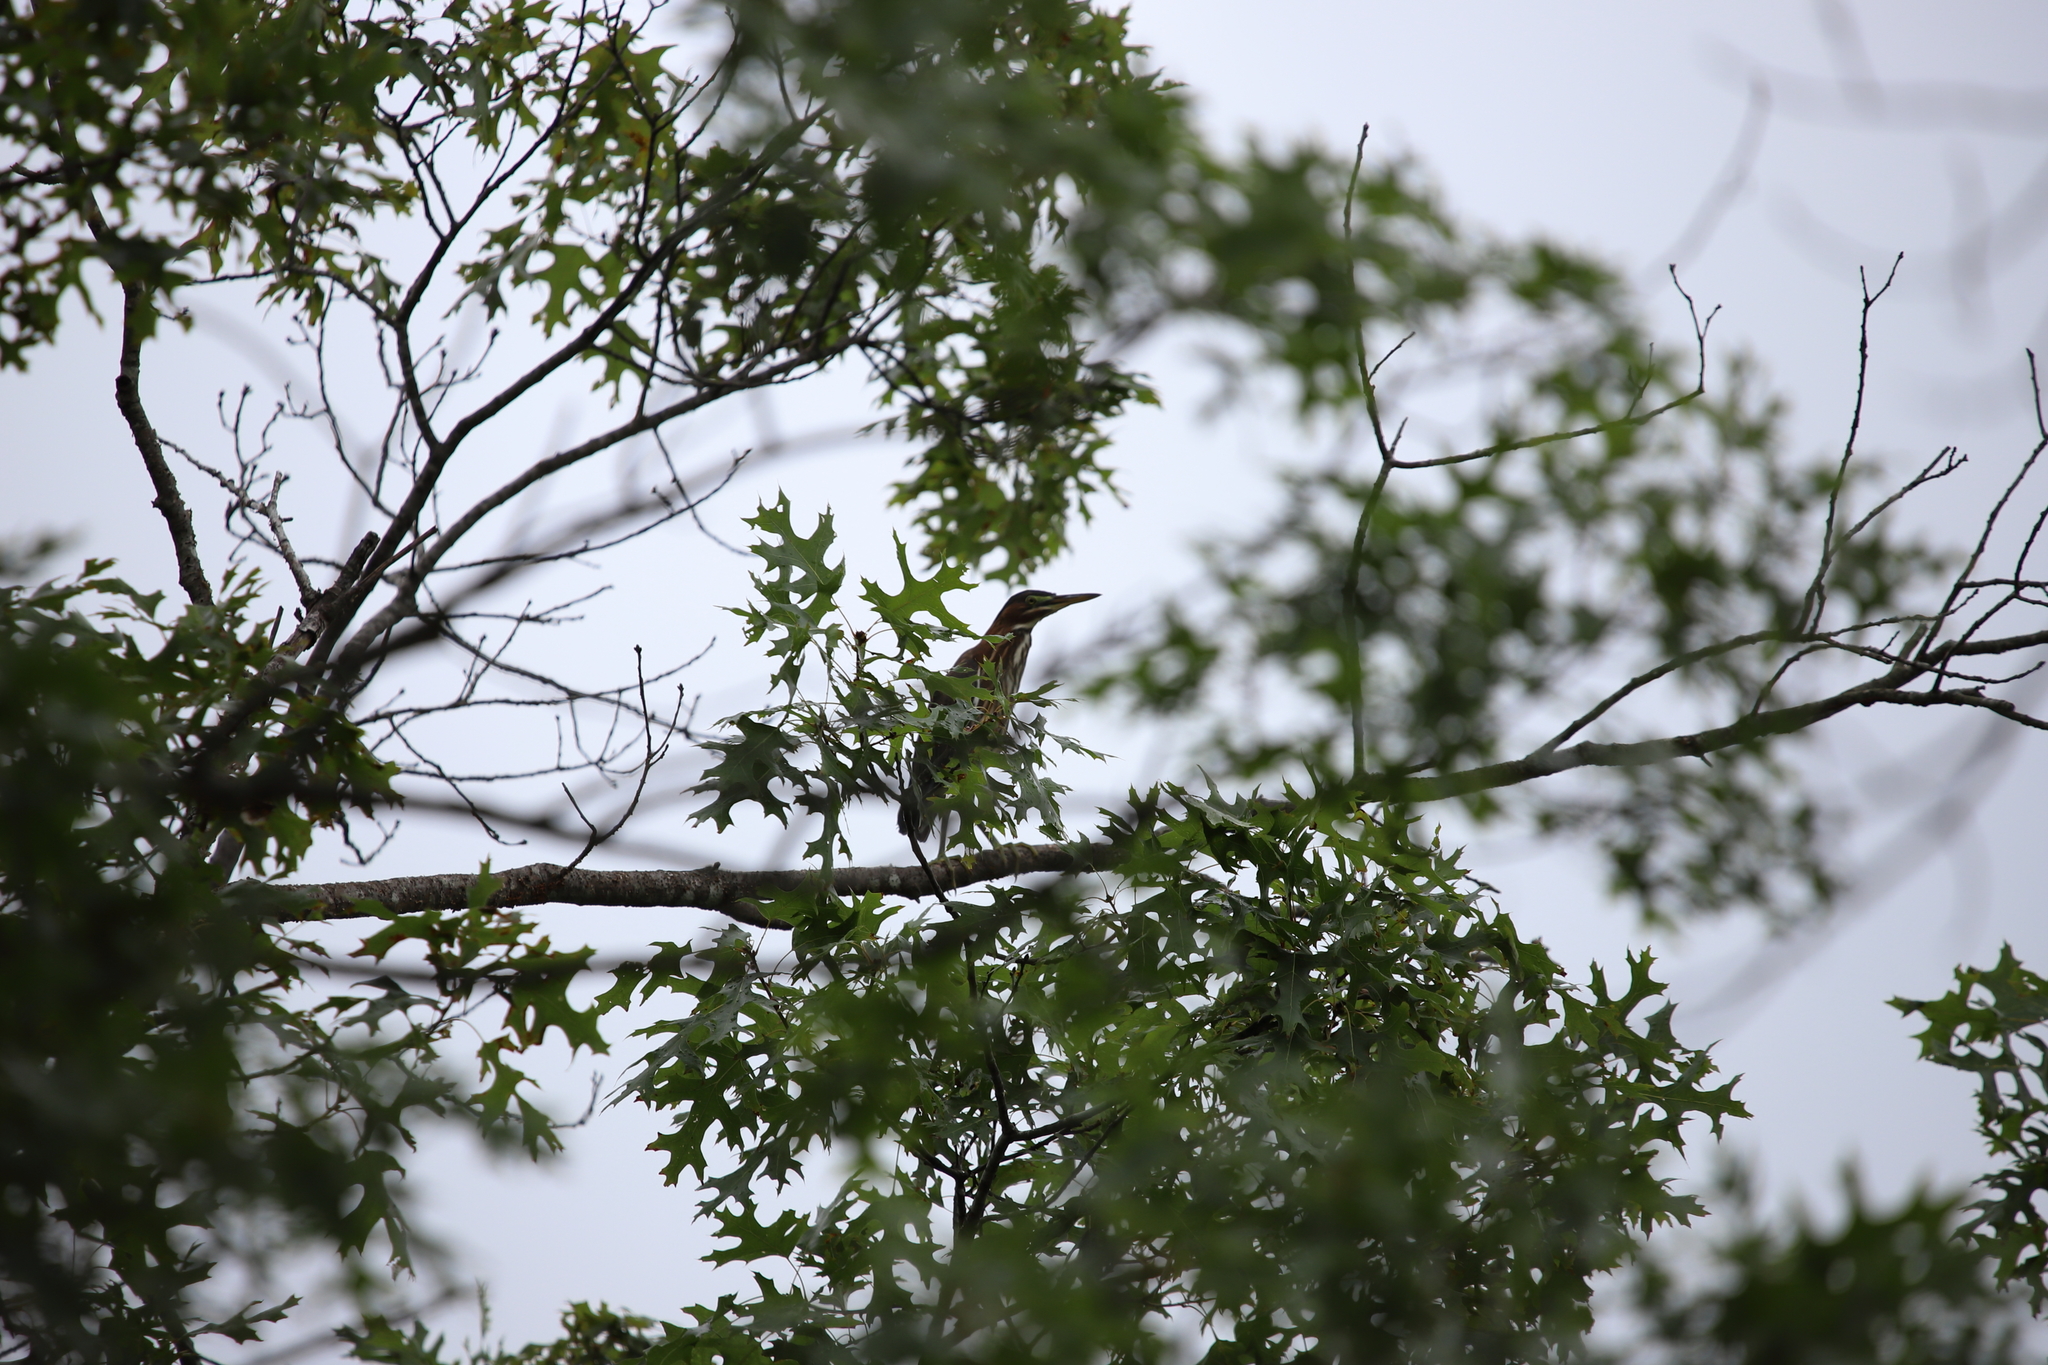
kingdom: Animalia
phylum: Chordata
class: Aves
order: Pelecaniformes
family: Ardeidae
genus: Butorides
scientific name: Butorides virescens
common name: Green heron
